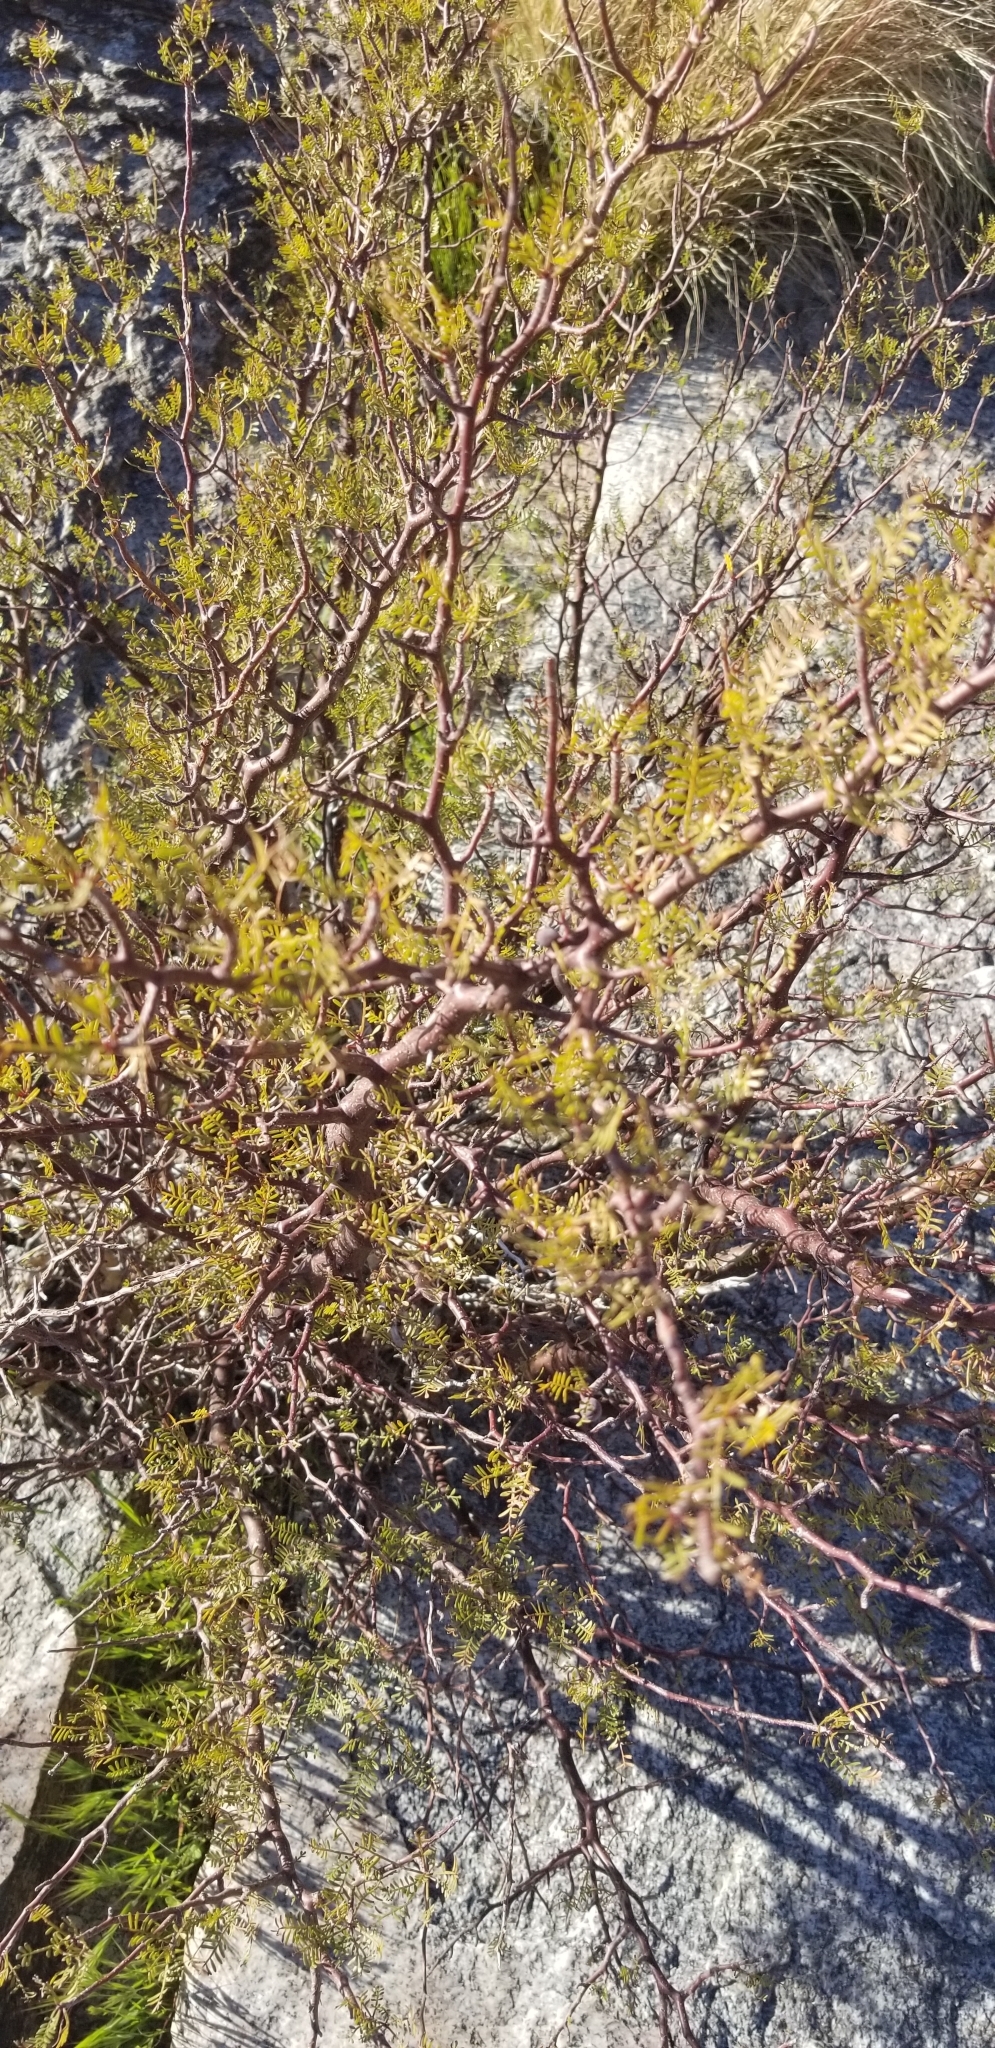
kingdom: Plantae
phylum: Tracheophyta
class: Magnoliopsida
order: Sapindales
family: Burseraceae
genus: Bursera
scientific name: Bursera microphylla
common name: Elephant tree
